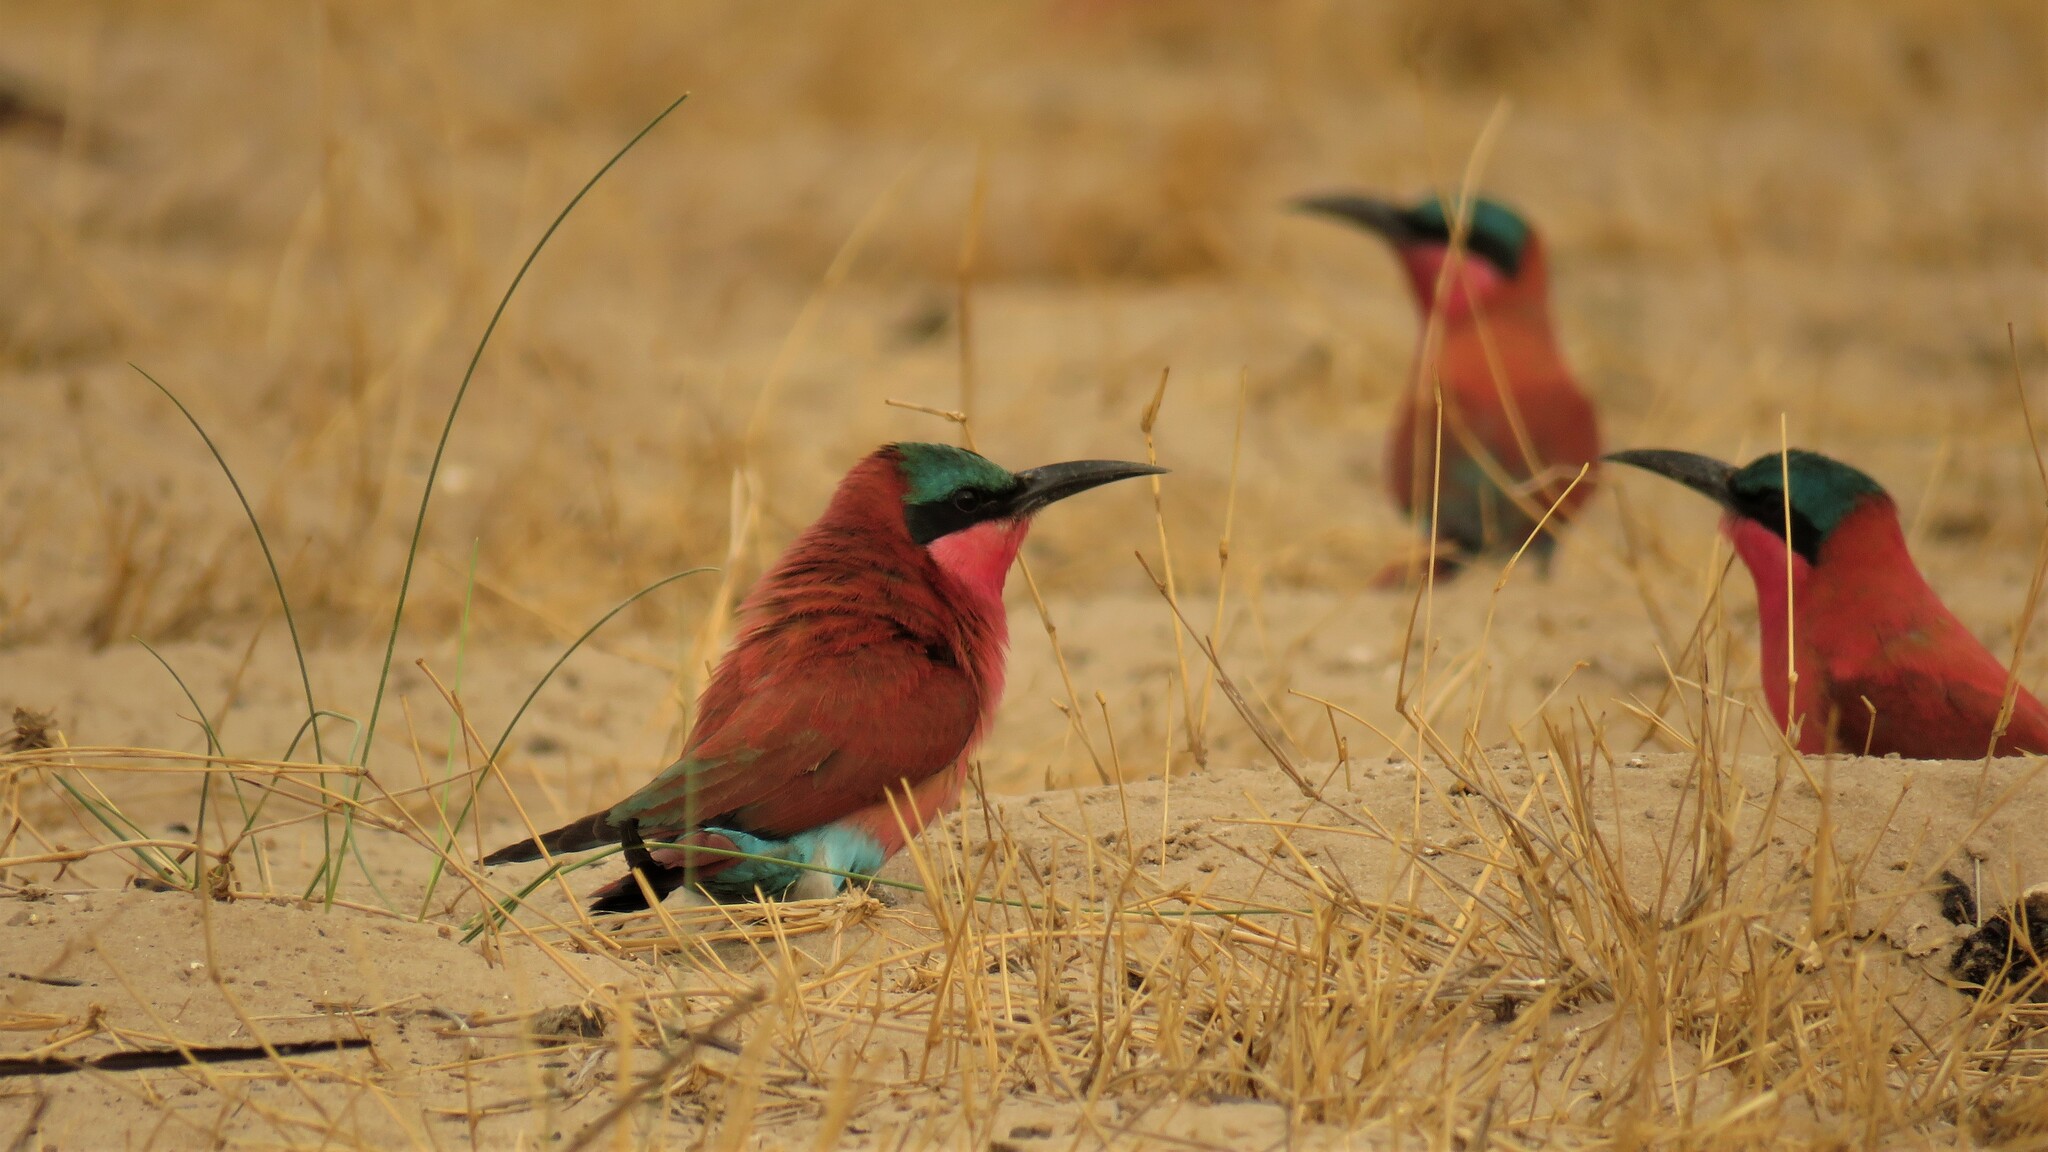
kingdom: Animalia
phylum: Chordata
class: Aves
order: Coraciiformes
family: Meropidae
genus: Merops
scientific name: Merops nubicoides
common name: Southern carmine bee-eater
